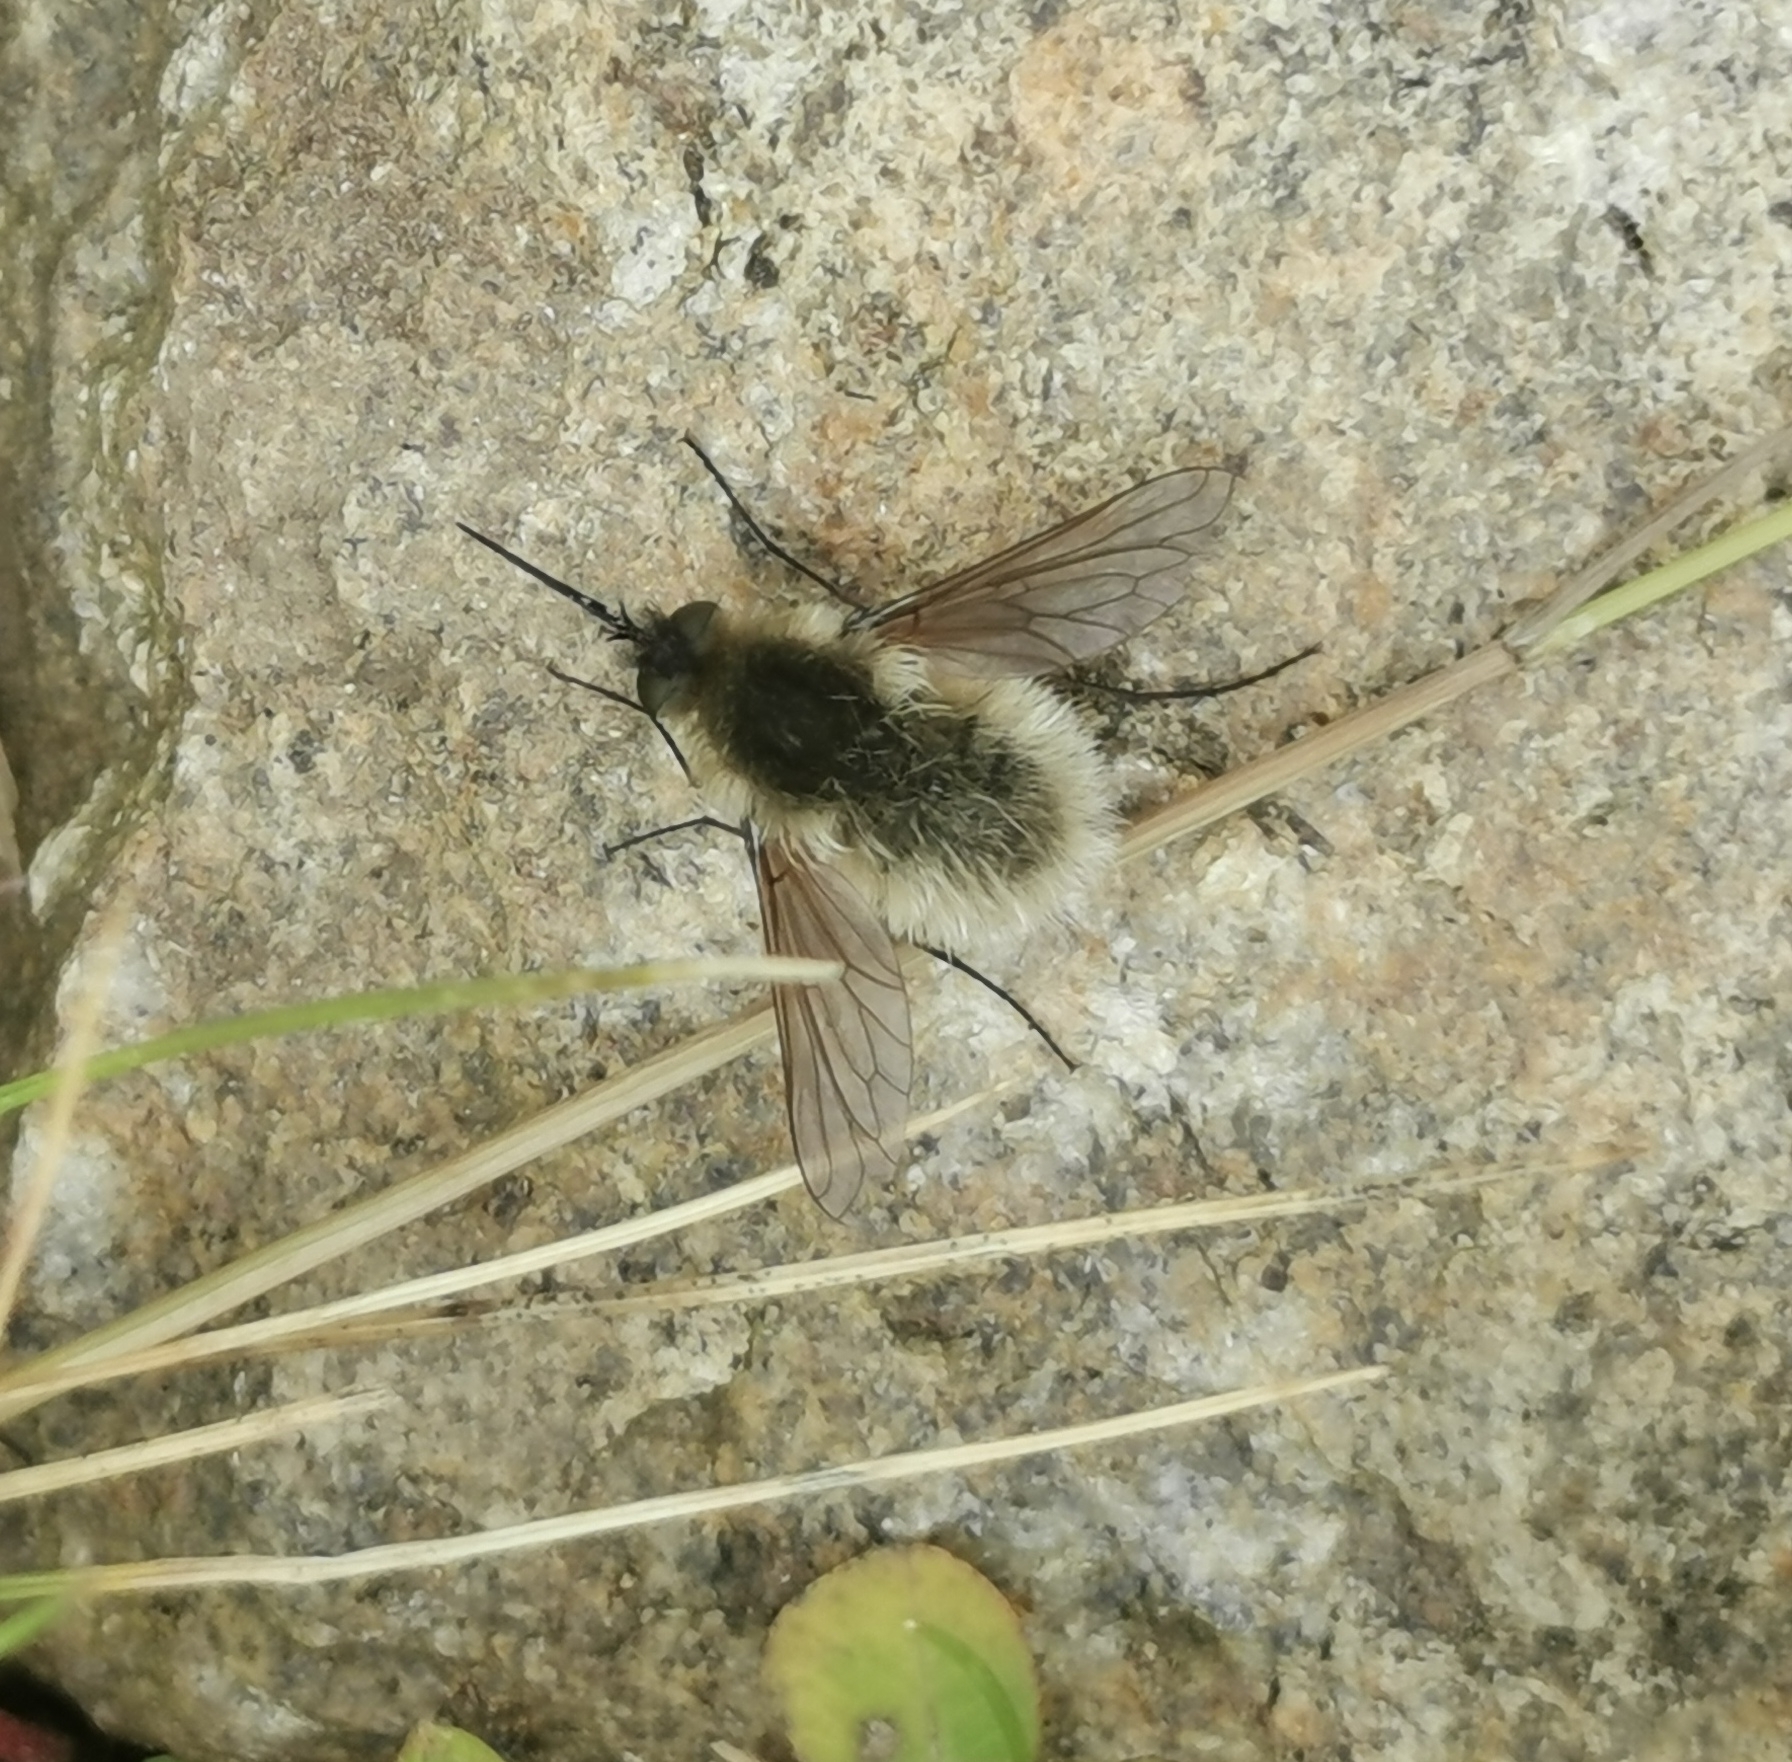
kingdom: Animalia
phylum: Arthropoda
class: Insecta
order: Diptera
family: Bombyliidae
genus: Systoechus
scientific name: Systoechus ctenopterus
